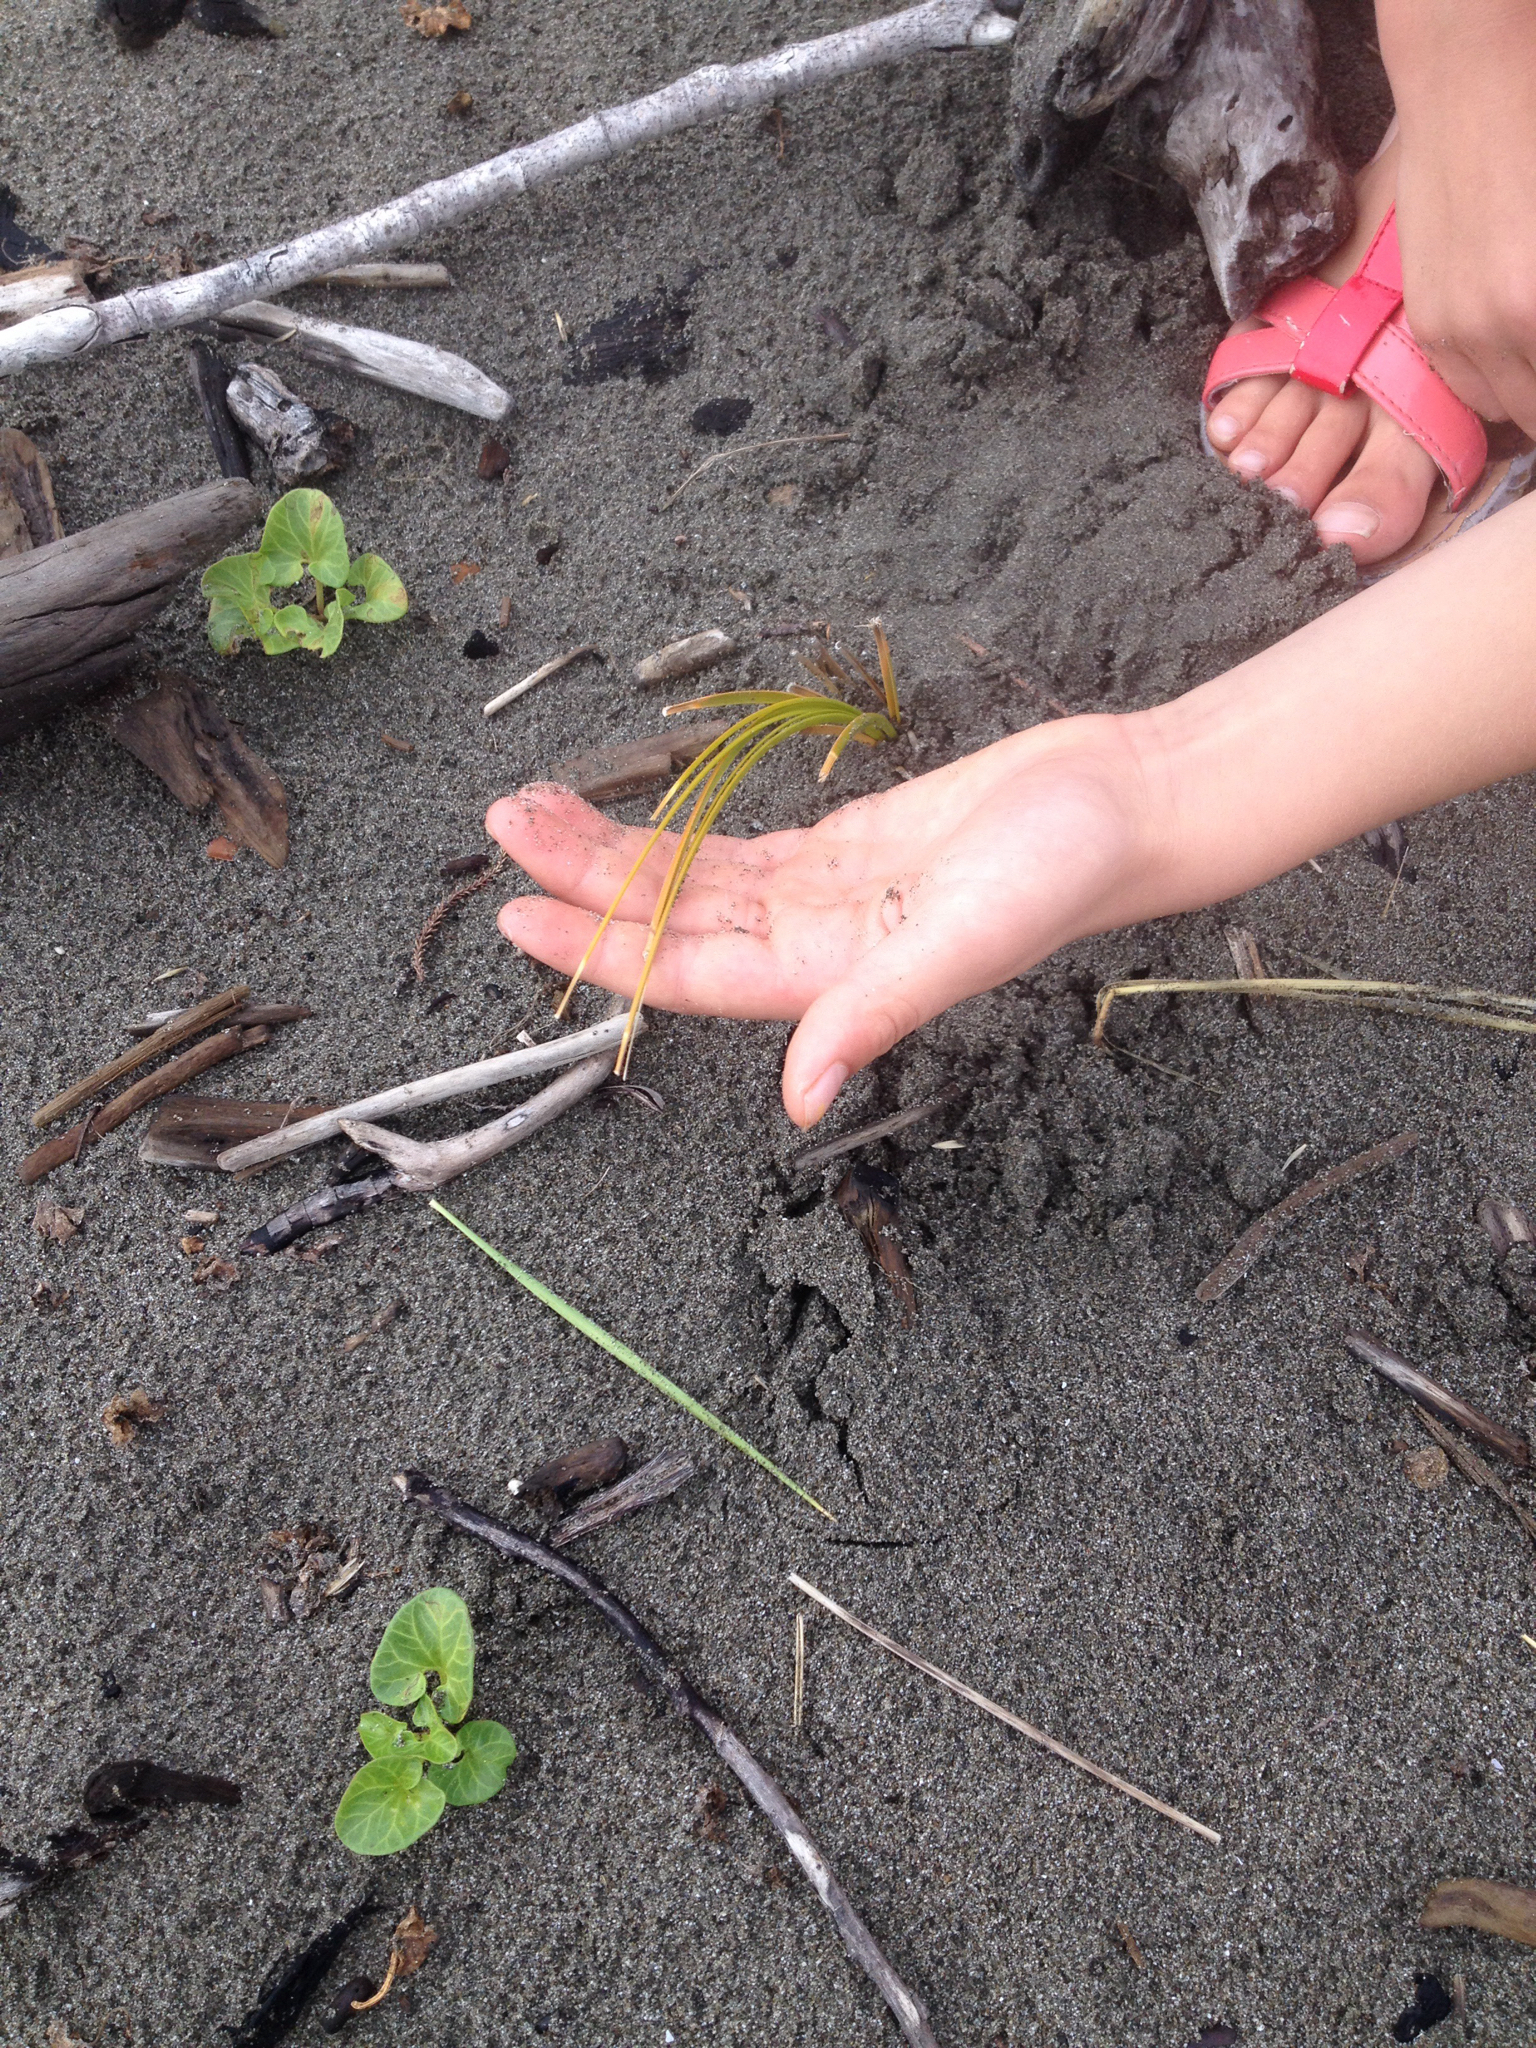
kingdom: Plantae
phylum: Tracheophyta
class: Liliopsida
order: Poales
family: Cyperaceae
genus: Ficinia
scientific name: Ficinia spiralis
